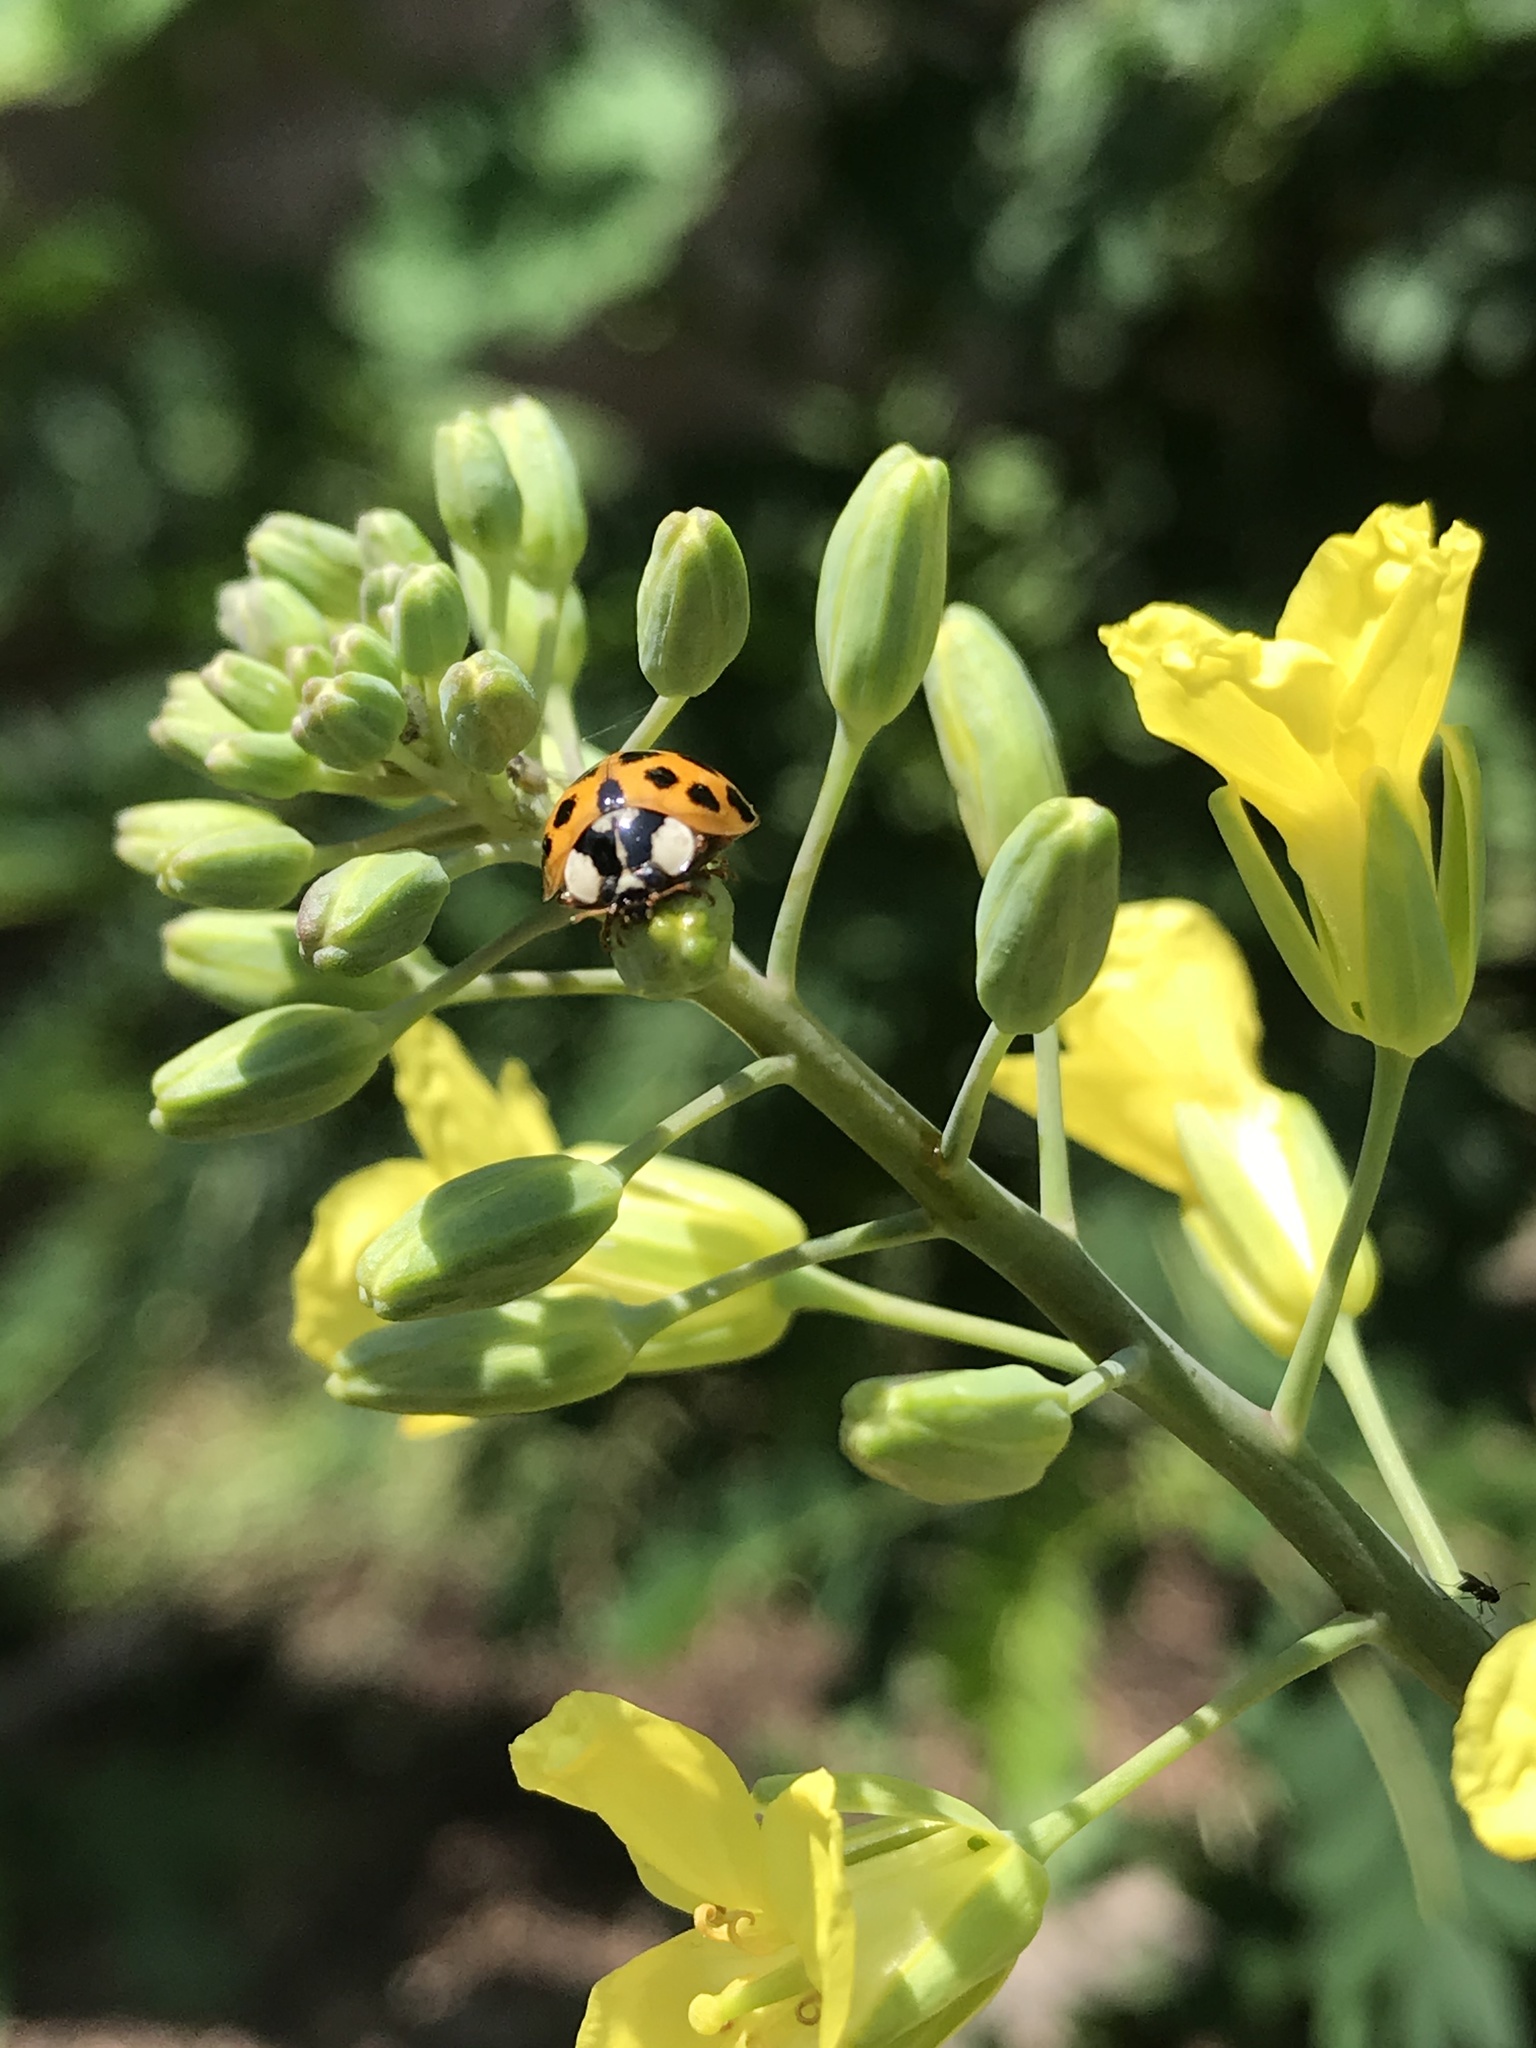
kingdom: Animalia
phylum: Arthropoda
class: Insecta
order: Coleoptera
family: Coccinellidae
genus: Harmonia
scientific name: Harmonia axyridis
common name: Harlequin ladybird
